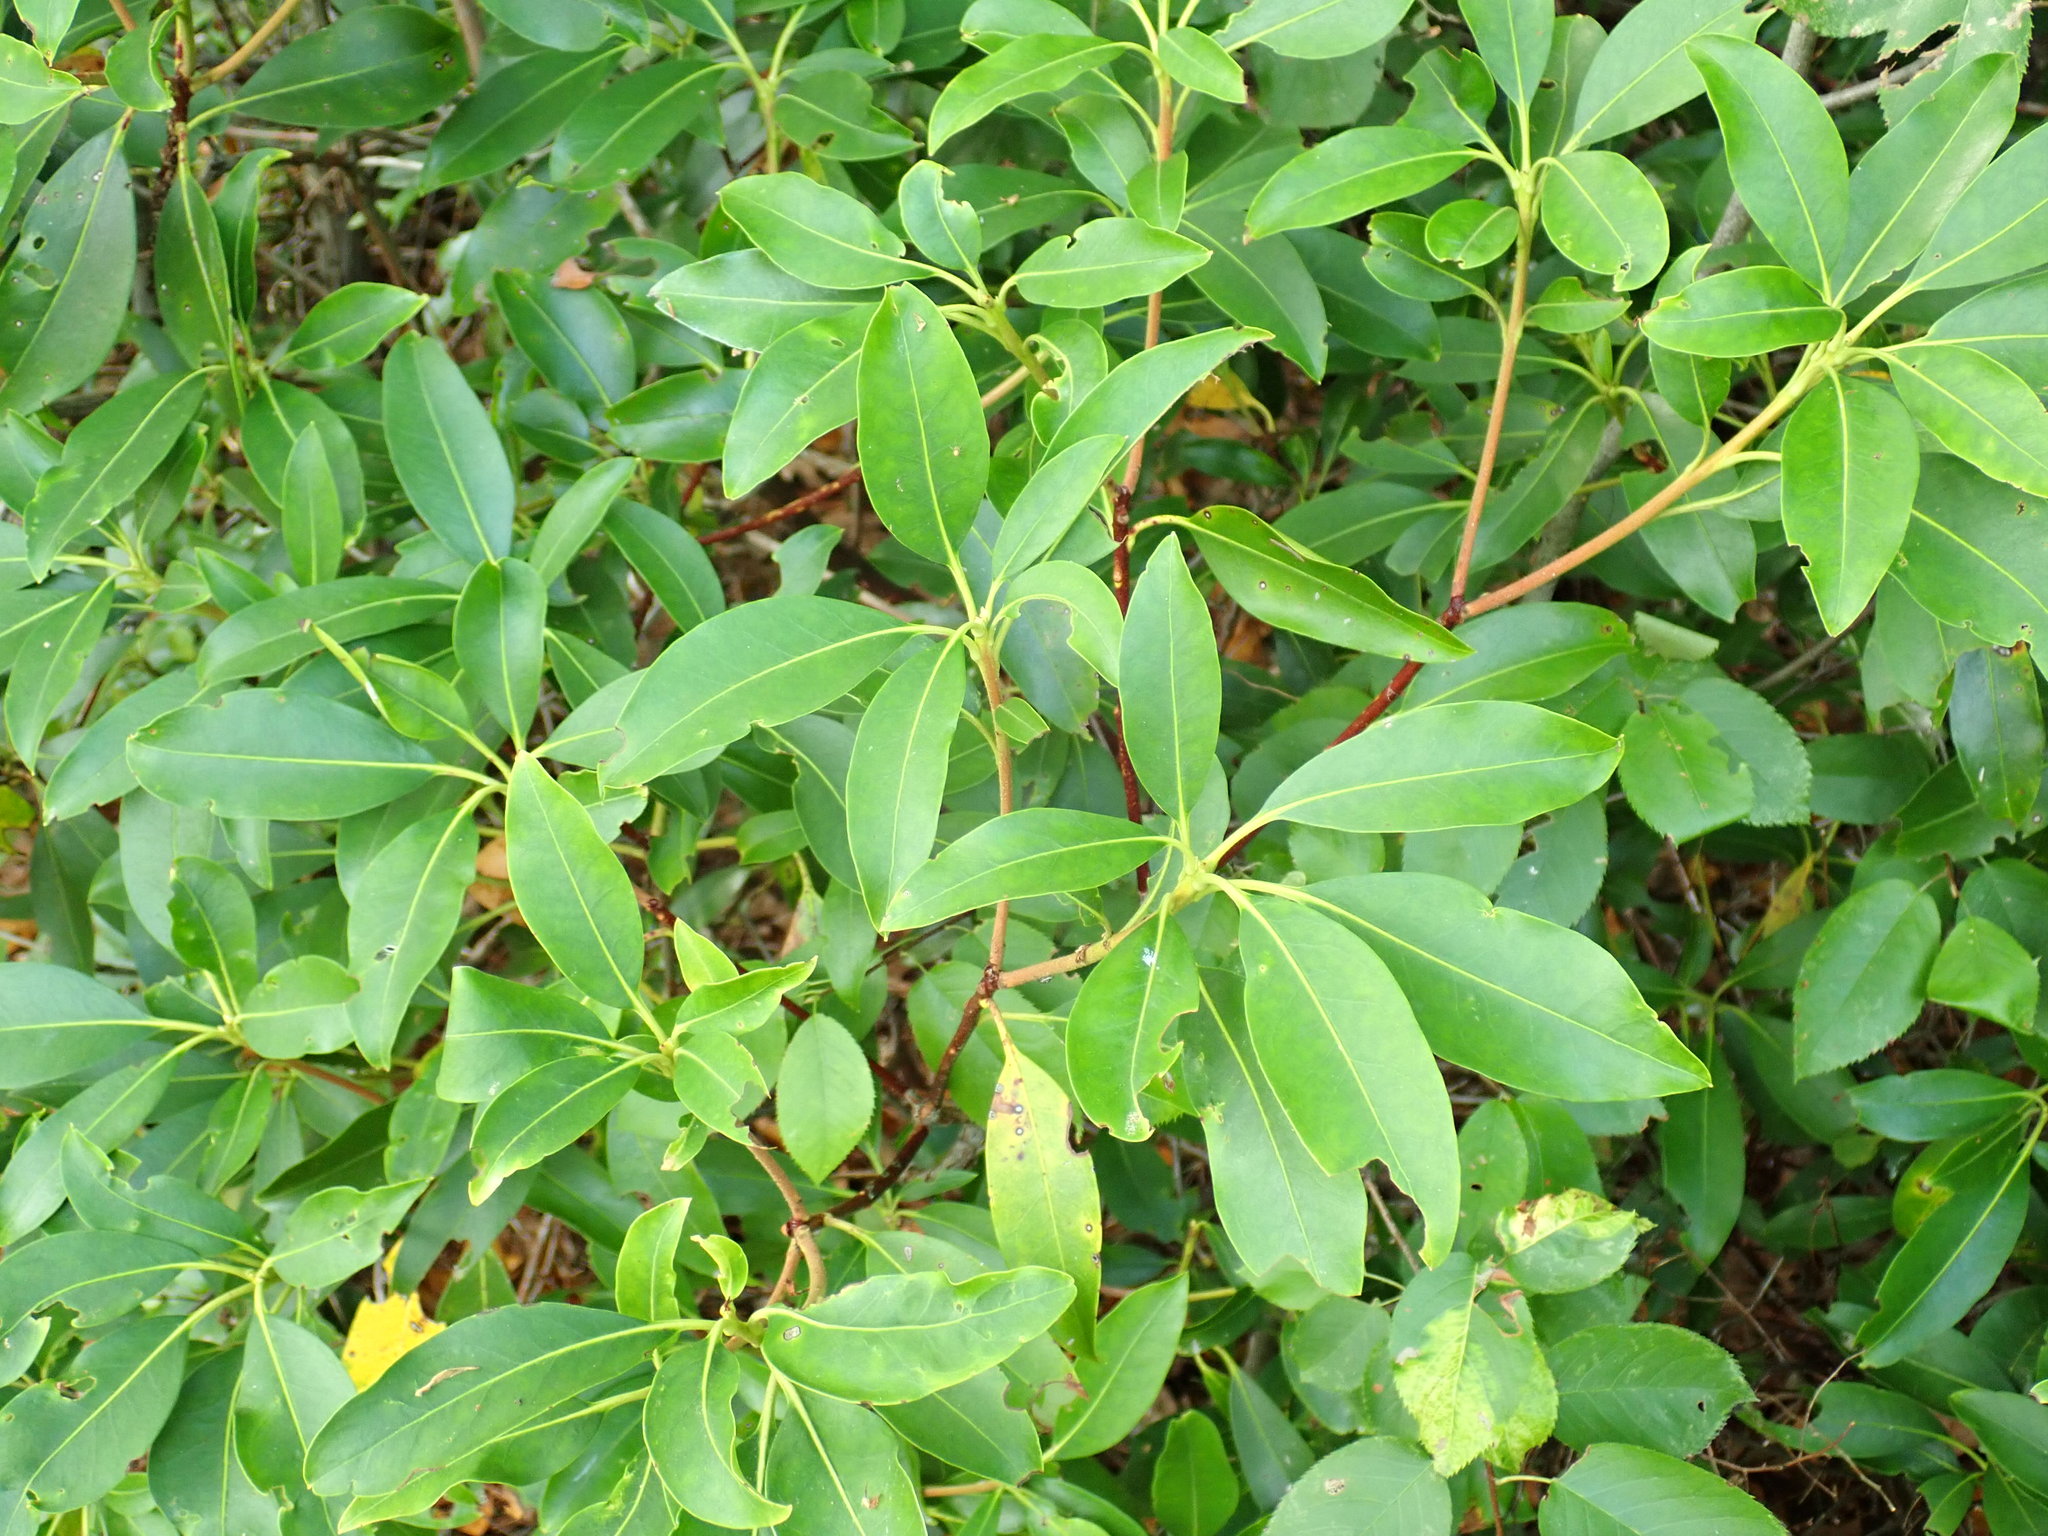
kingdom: Plantae
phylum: Tracheophyta
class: Magnoliopsida
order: Ericales
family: Ericaceae
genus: Kalmia
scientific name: Kalmia latifolia
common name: Mountain-laurel
